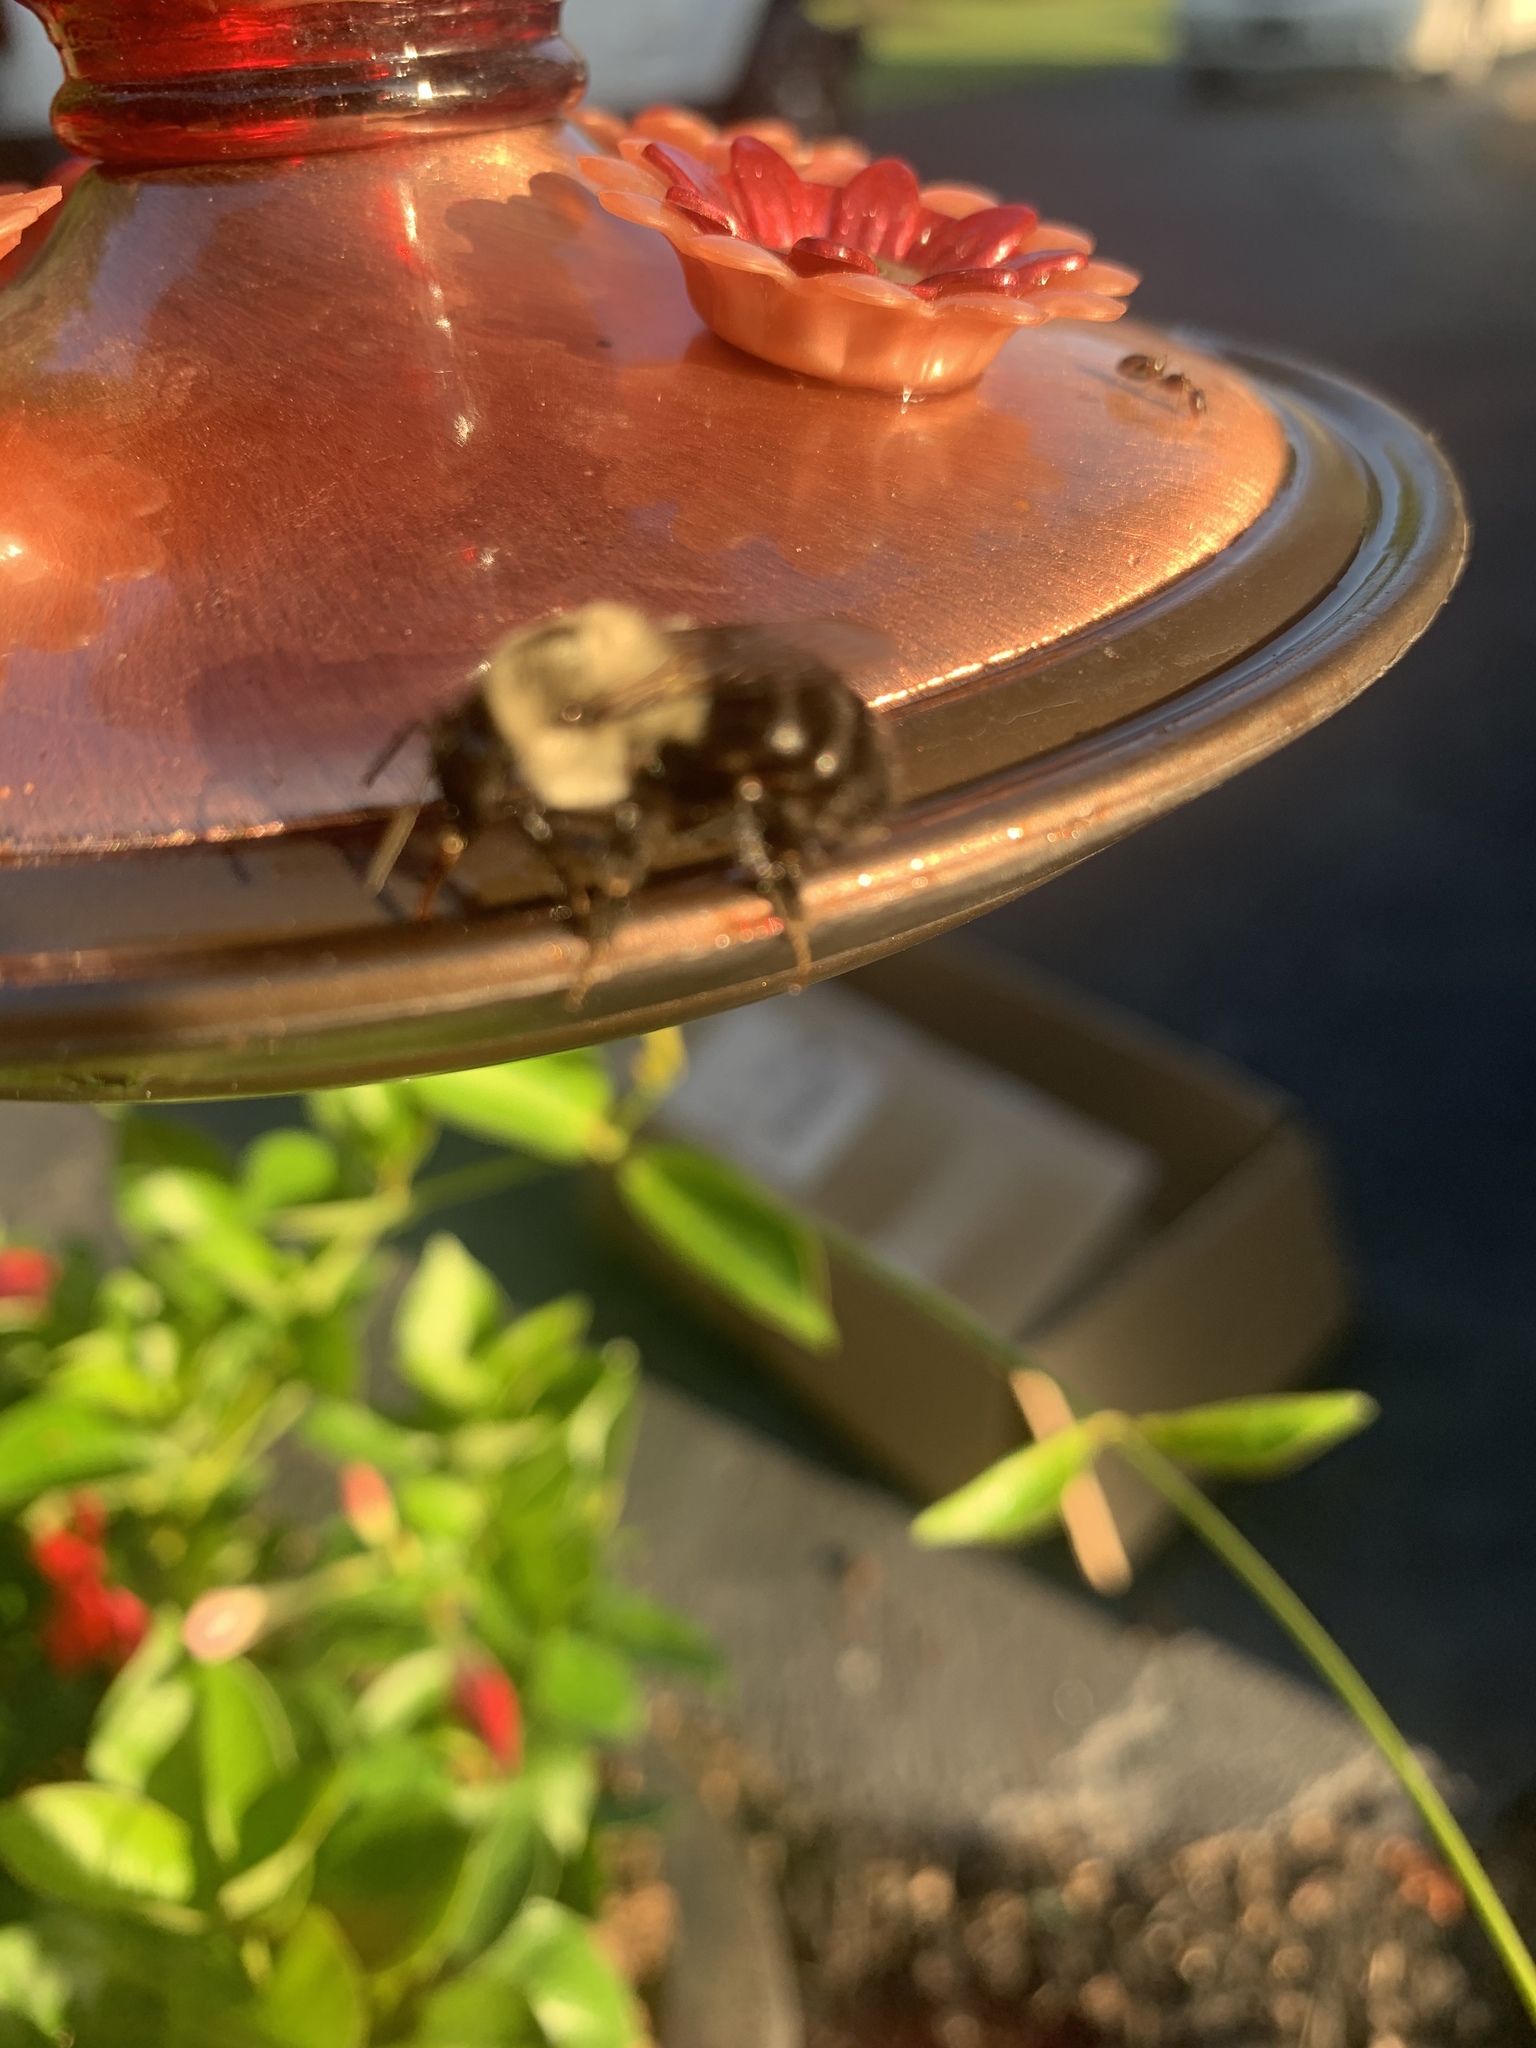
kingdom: Animalia
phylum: Arthropoda
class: Insecta
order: Hymenoptera
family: Apidae
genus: Bombus
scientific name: Bombus impatiens
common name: Common eastern bumble bee
